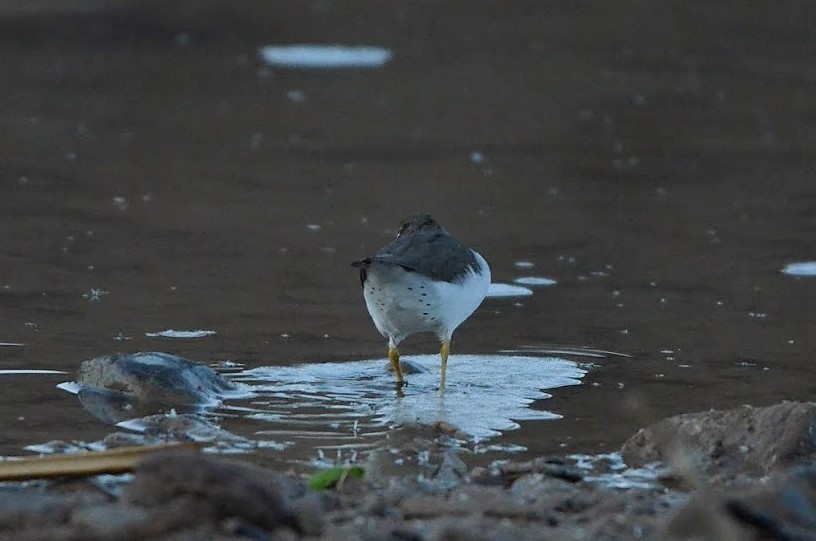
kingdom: Animalia
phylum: Chordata
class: Aves
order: Charadriiformes
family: Scolopacidae
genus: Actitis
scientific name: Actitis macularius
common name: Spotted sandpiper
